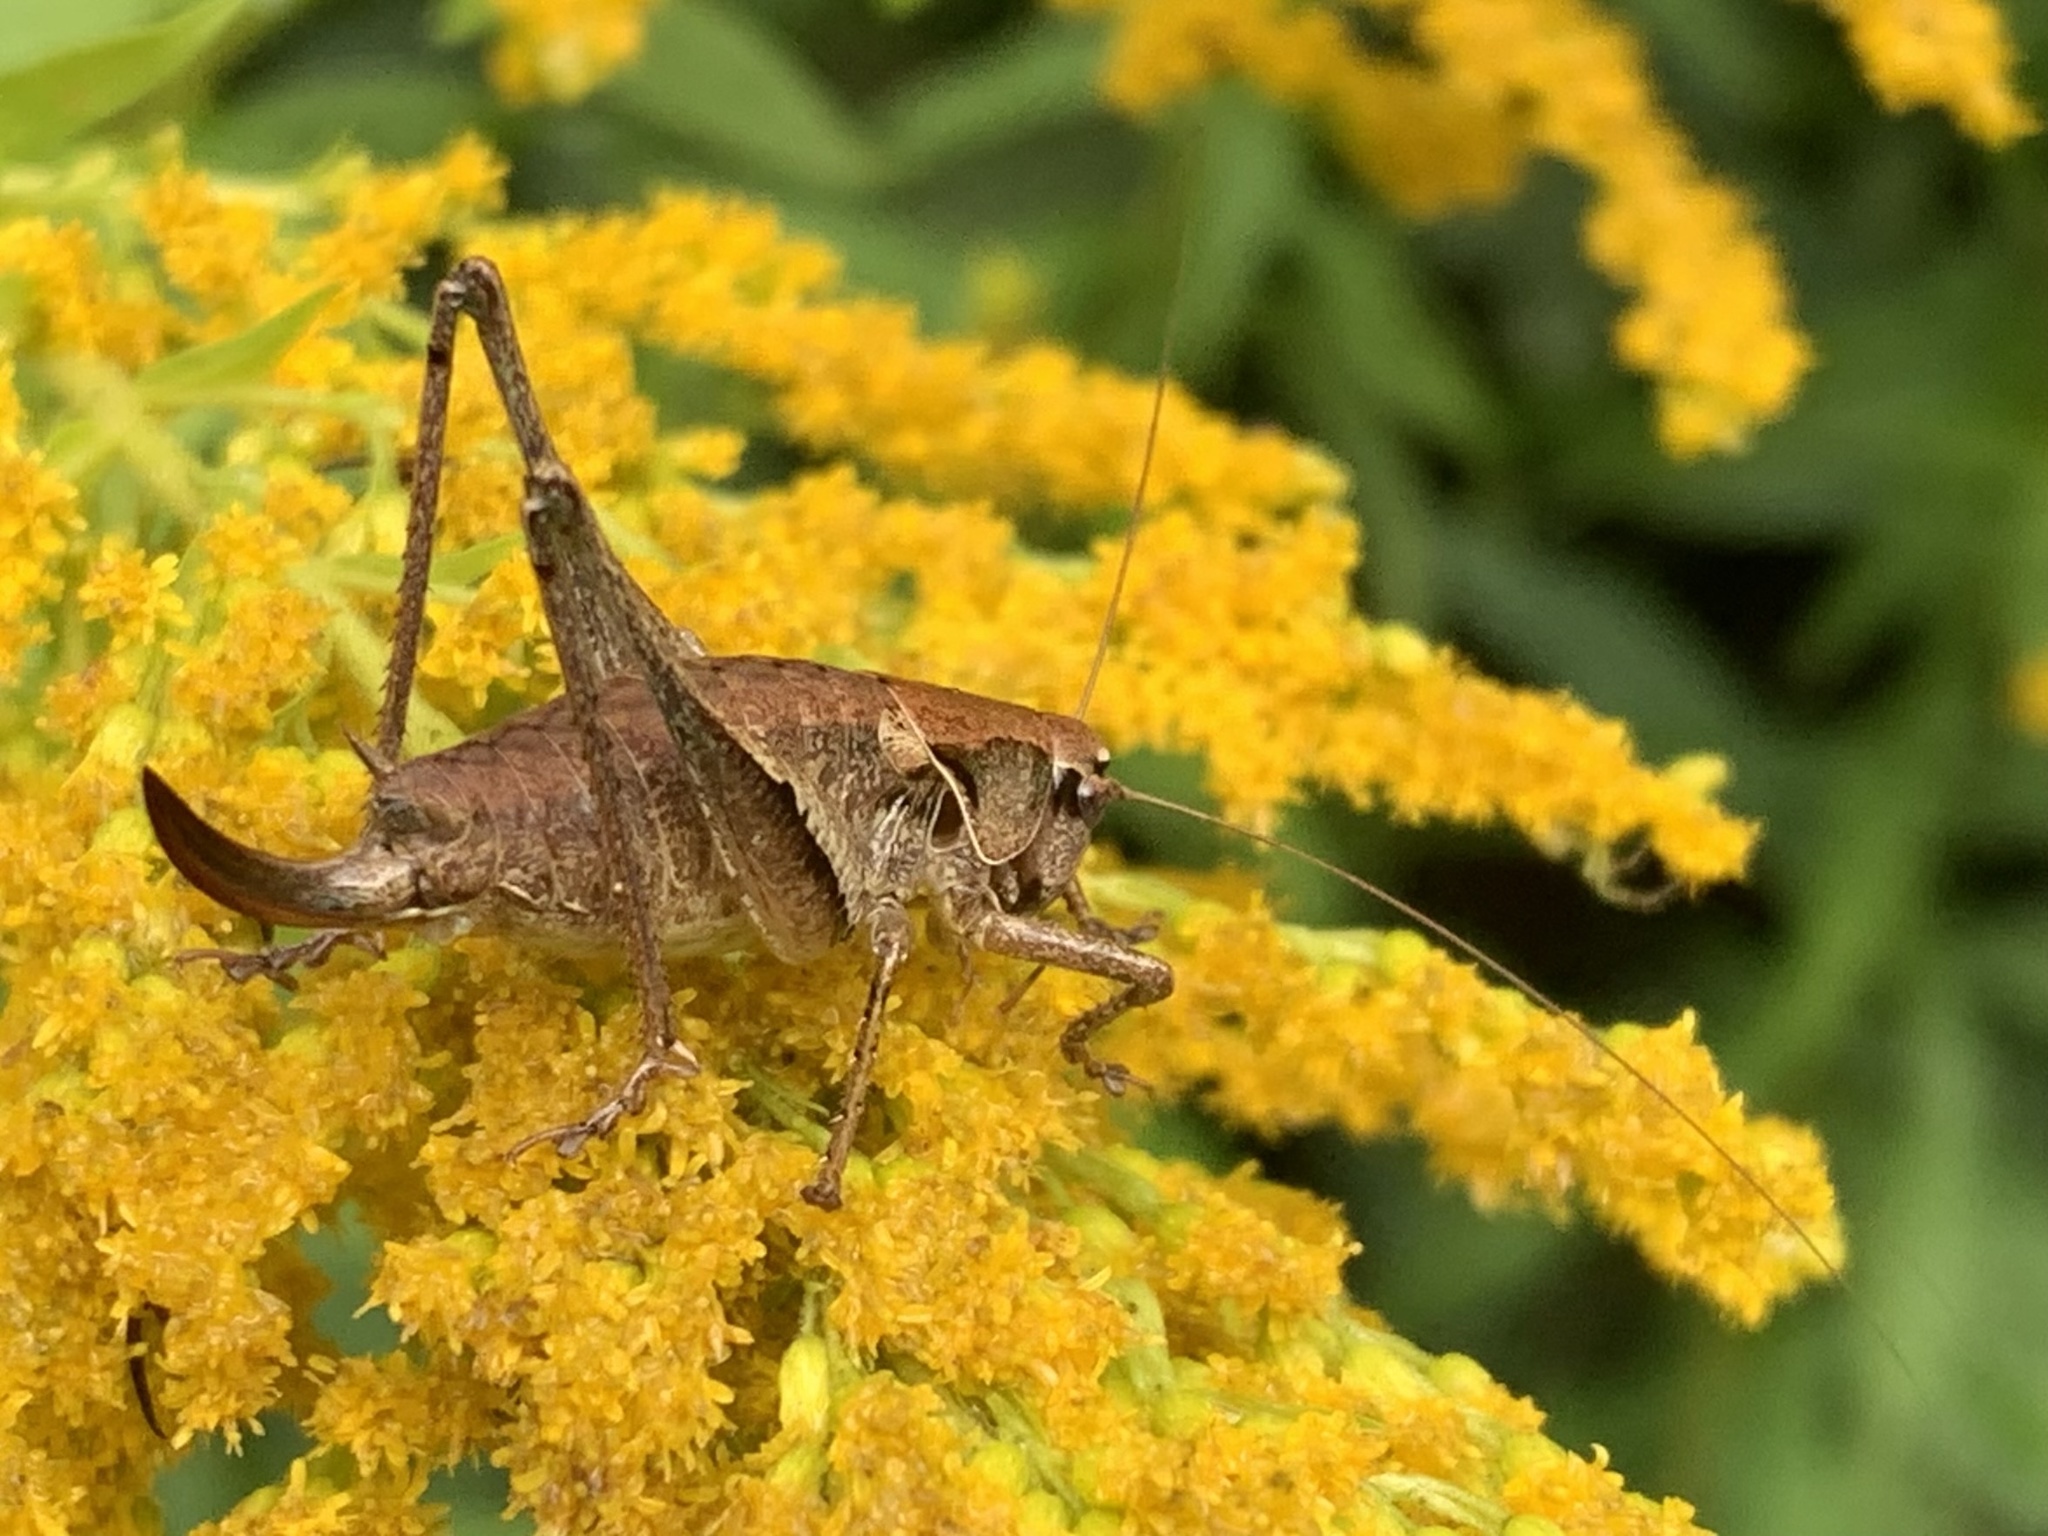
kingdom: Animalia
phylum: Arthropoda
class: Insecta
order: Orthoptera
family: Tettigoniidae
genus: Pholidoptera
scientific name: Pholidoptera griseoaptera
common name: Dark bush-cricket
